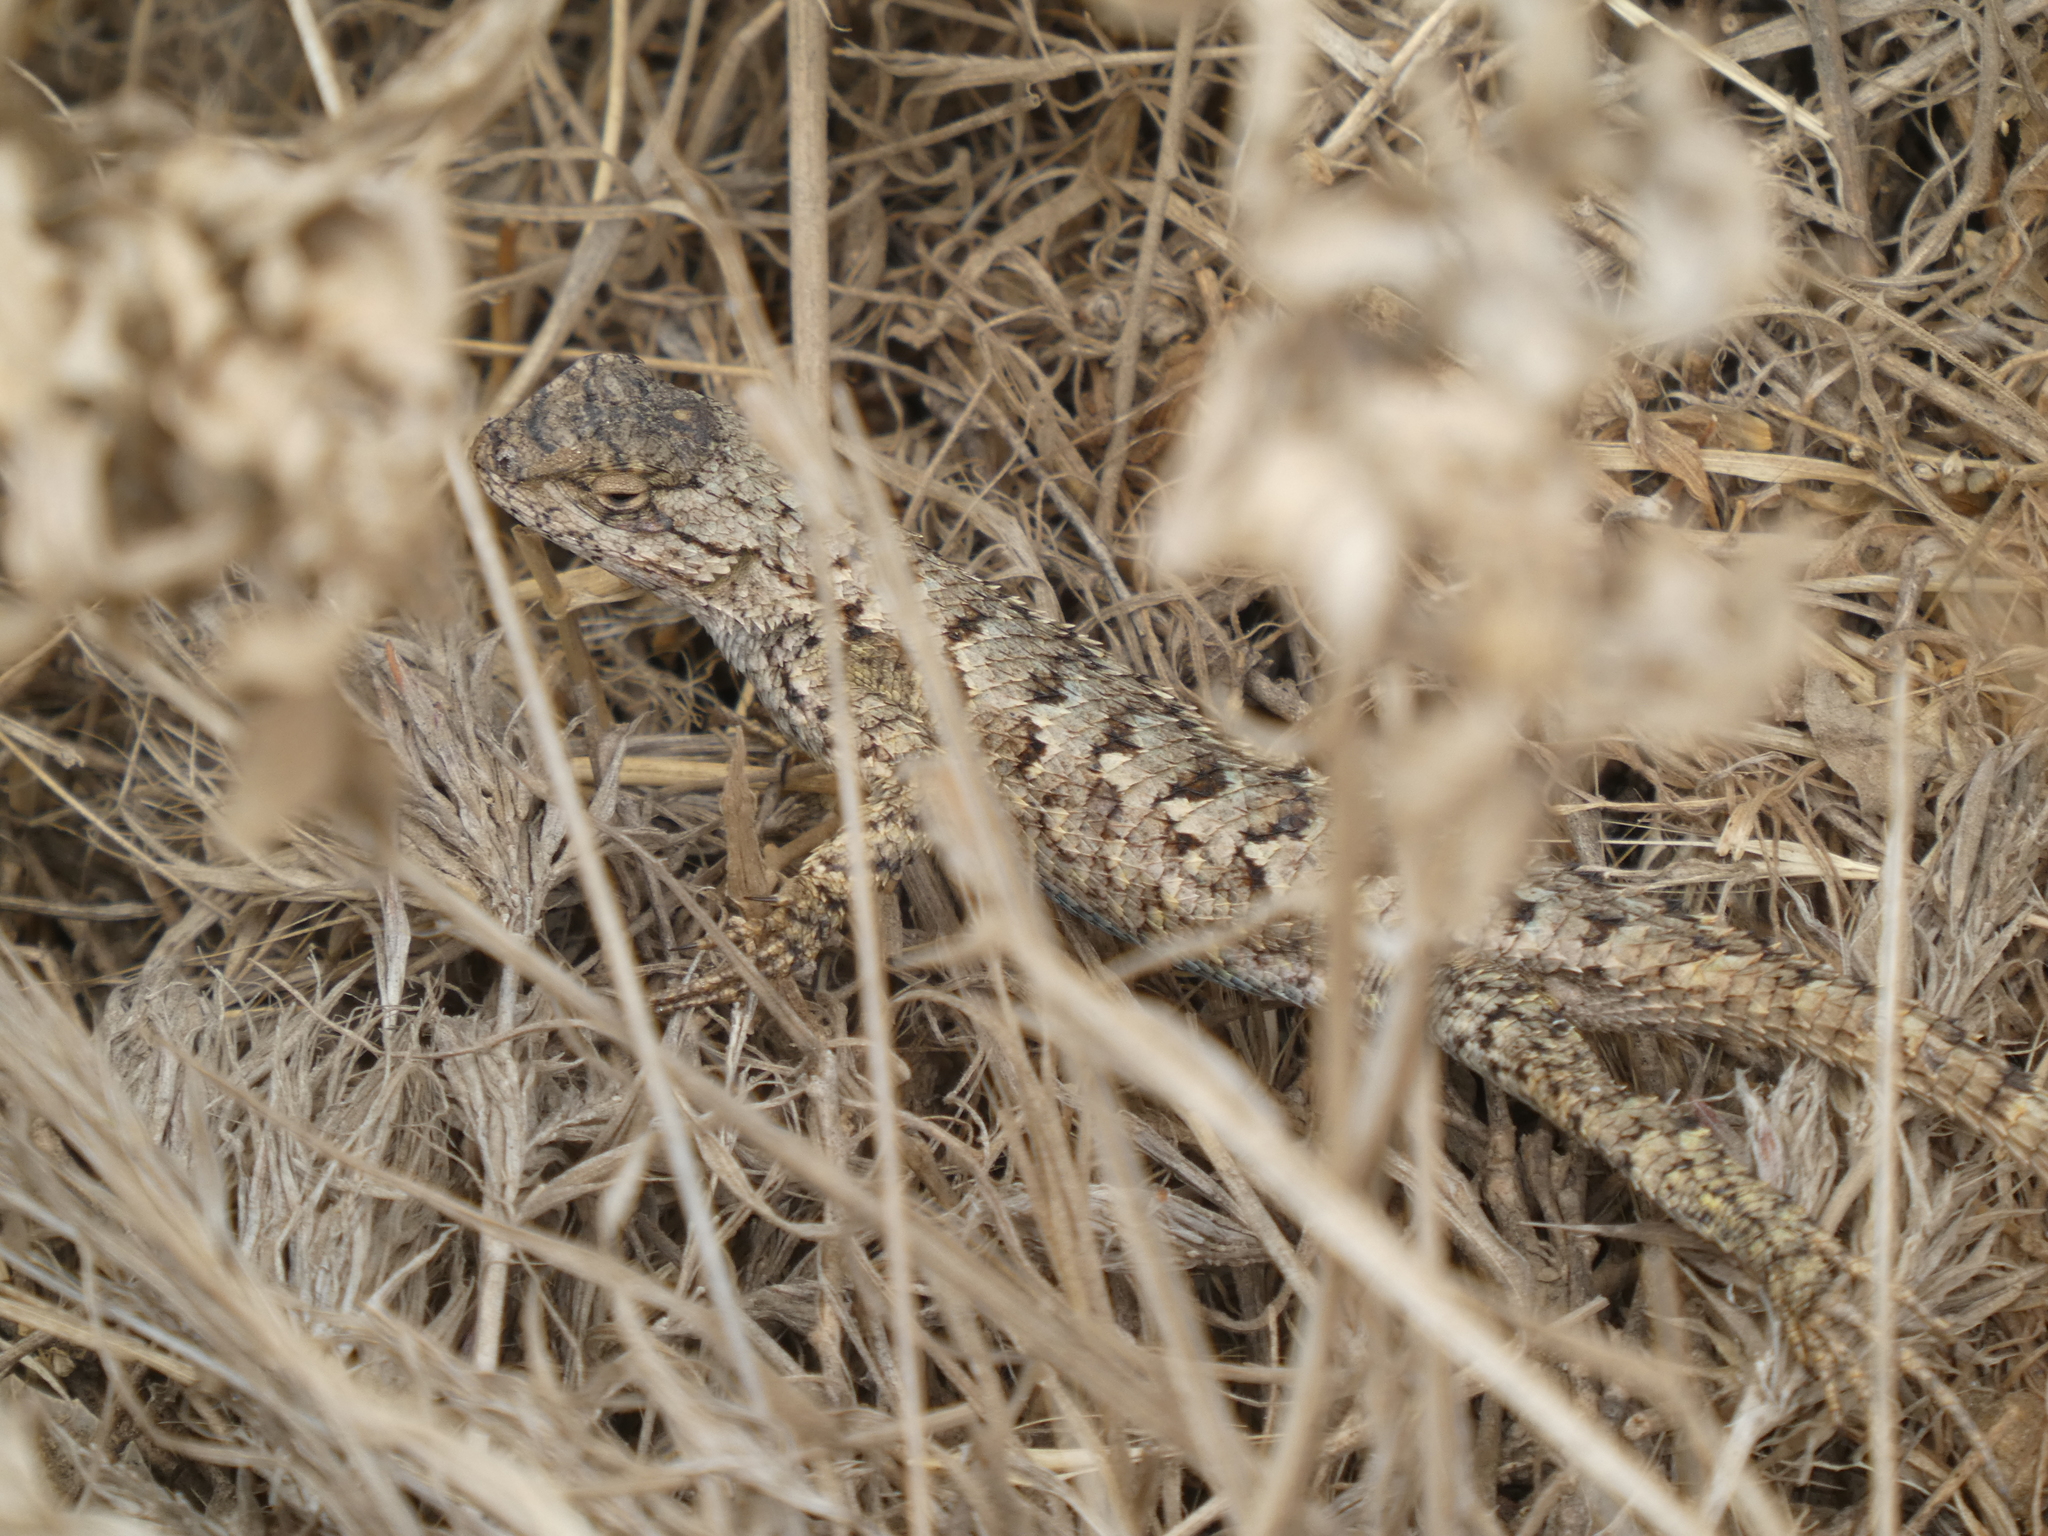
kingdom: Animalia
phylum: Chordata
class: Squamata
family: Phrynosomatidae
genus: Sceloporus
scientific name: Sceloporus occidentalis
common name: Western fence lizard
